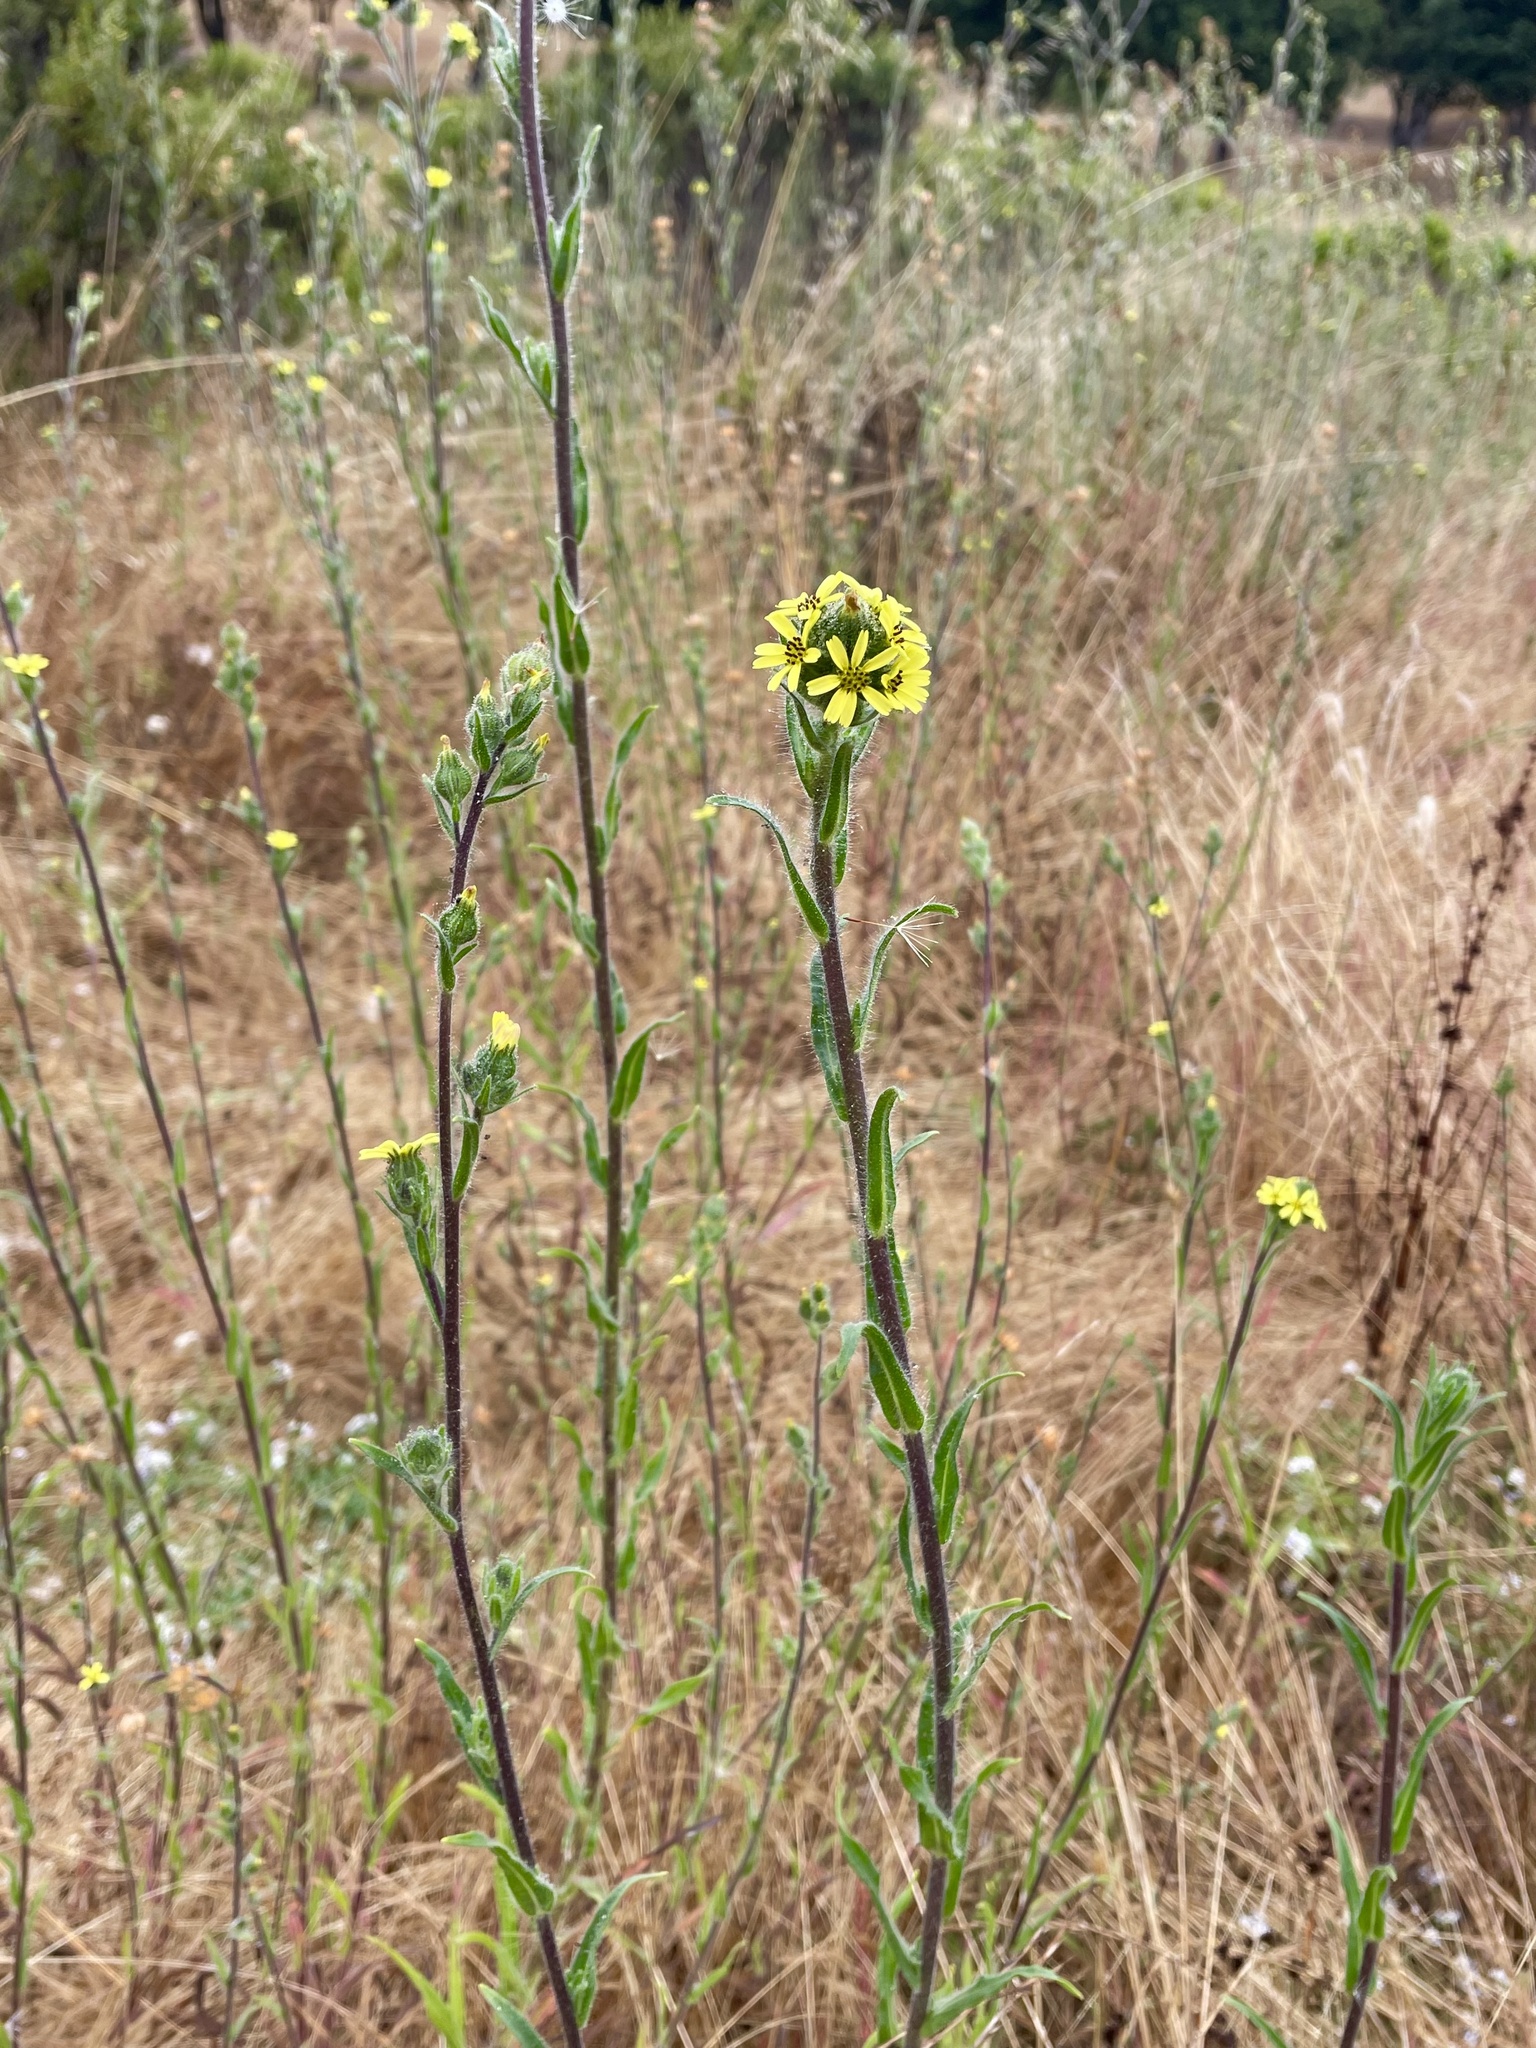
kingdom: Plantae
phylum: Tracheophyta
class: Magnoliopsida
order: Asterales
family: Asteraceae
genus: Madia
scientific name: Madia sativa
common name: Coast tarweed
